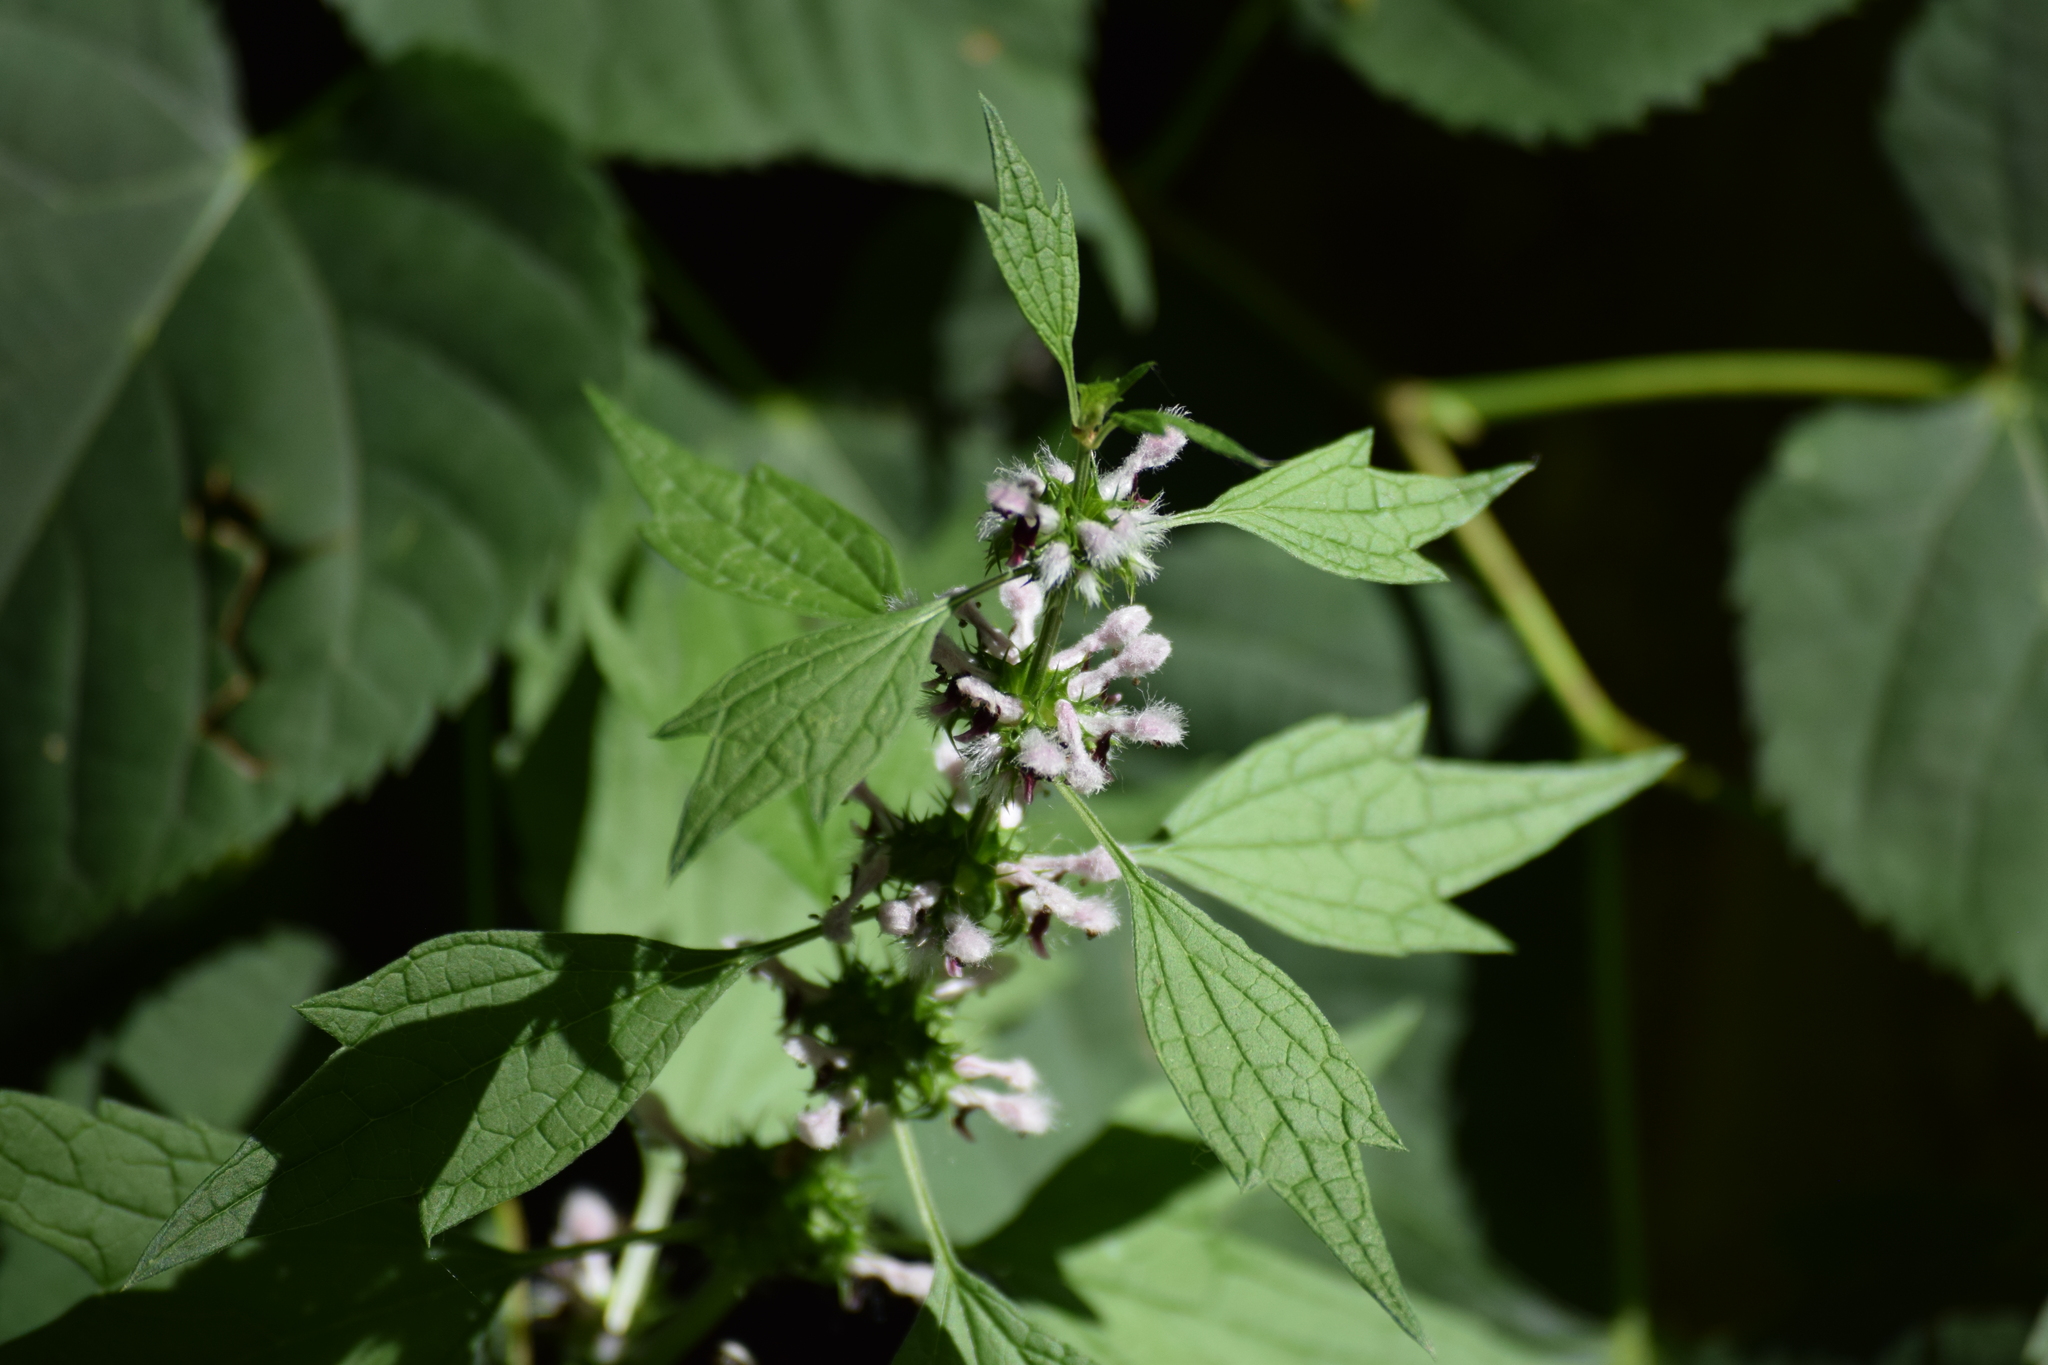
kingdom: Plantae
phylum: Tracheophyta
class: Magnoliopsida
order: Lamiales
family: Lamiaceae
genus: Leonurus
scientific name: Leonurus cardiaca
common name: Motherwort
